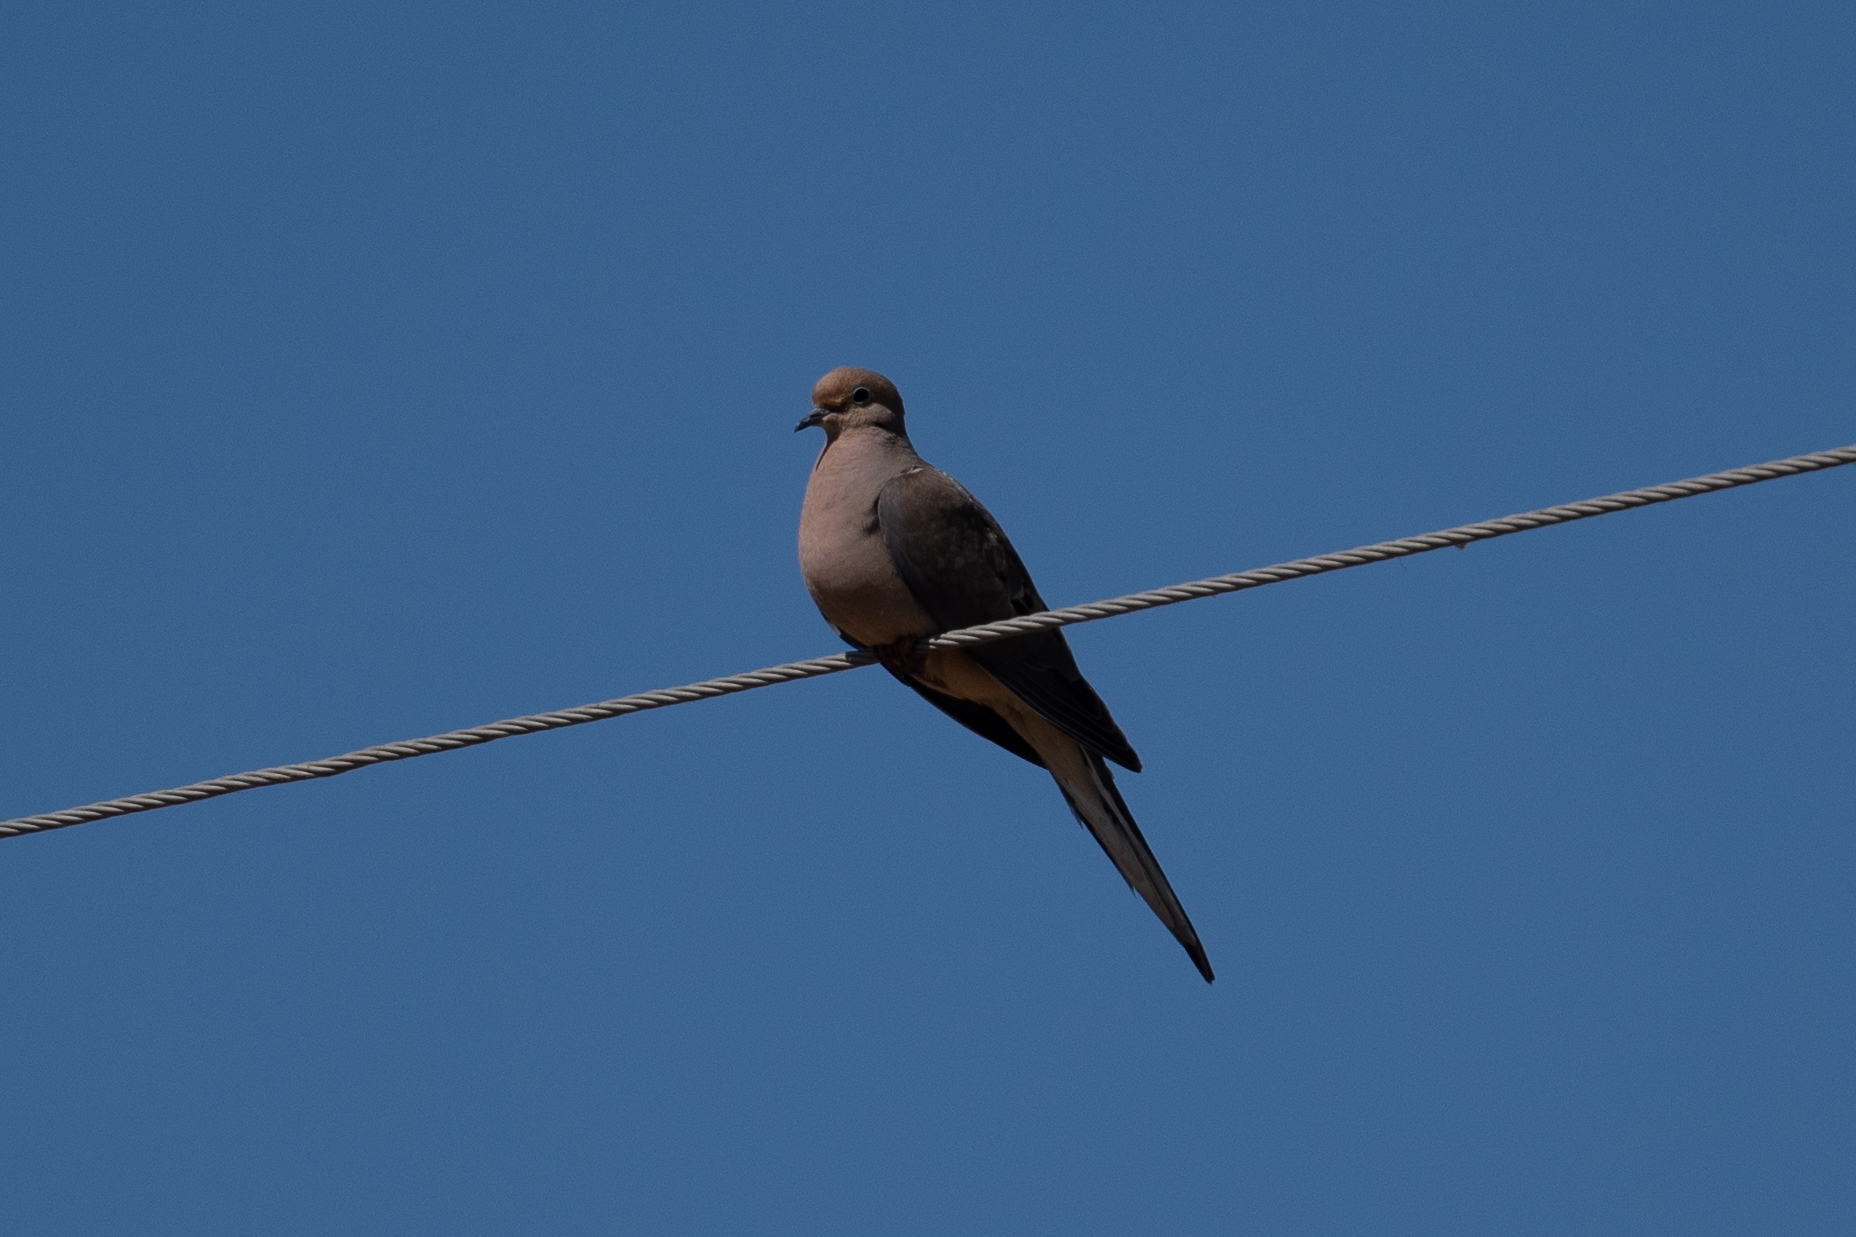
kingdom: Animalia
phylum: Chordata
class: Aves
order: Columbiformes
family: Columbidae
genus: Zenaida
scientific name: Zenaida macroura
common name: Mourning dove
